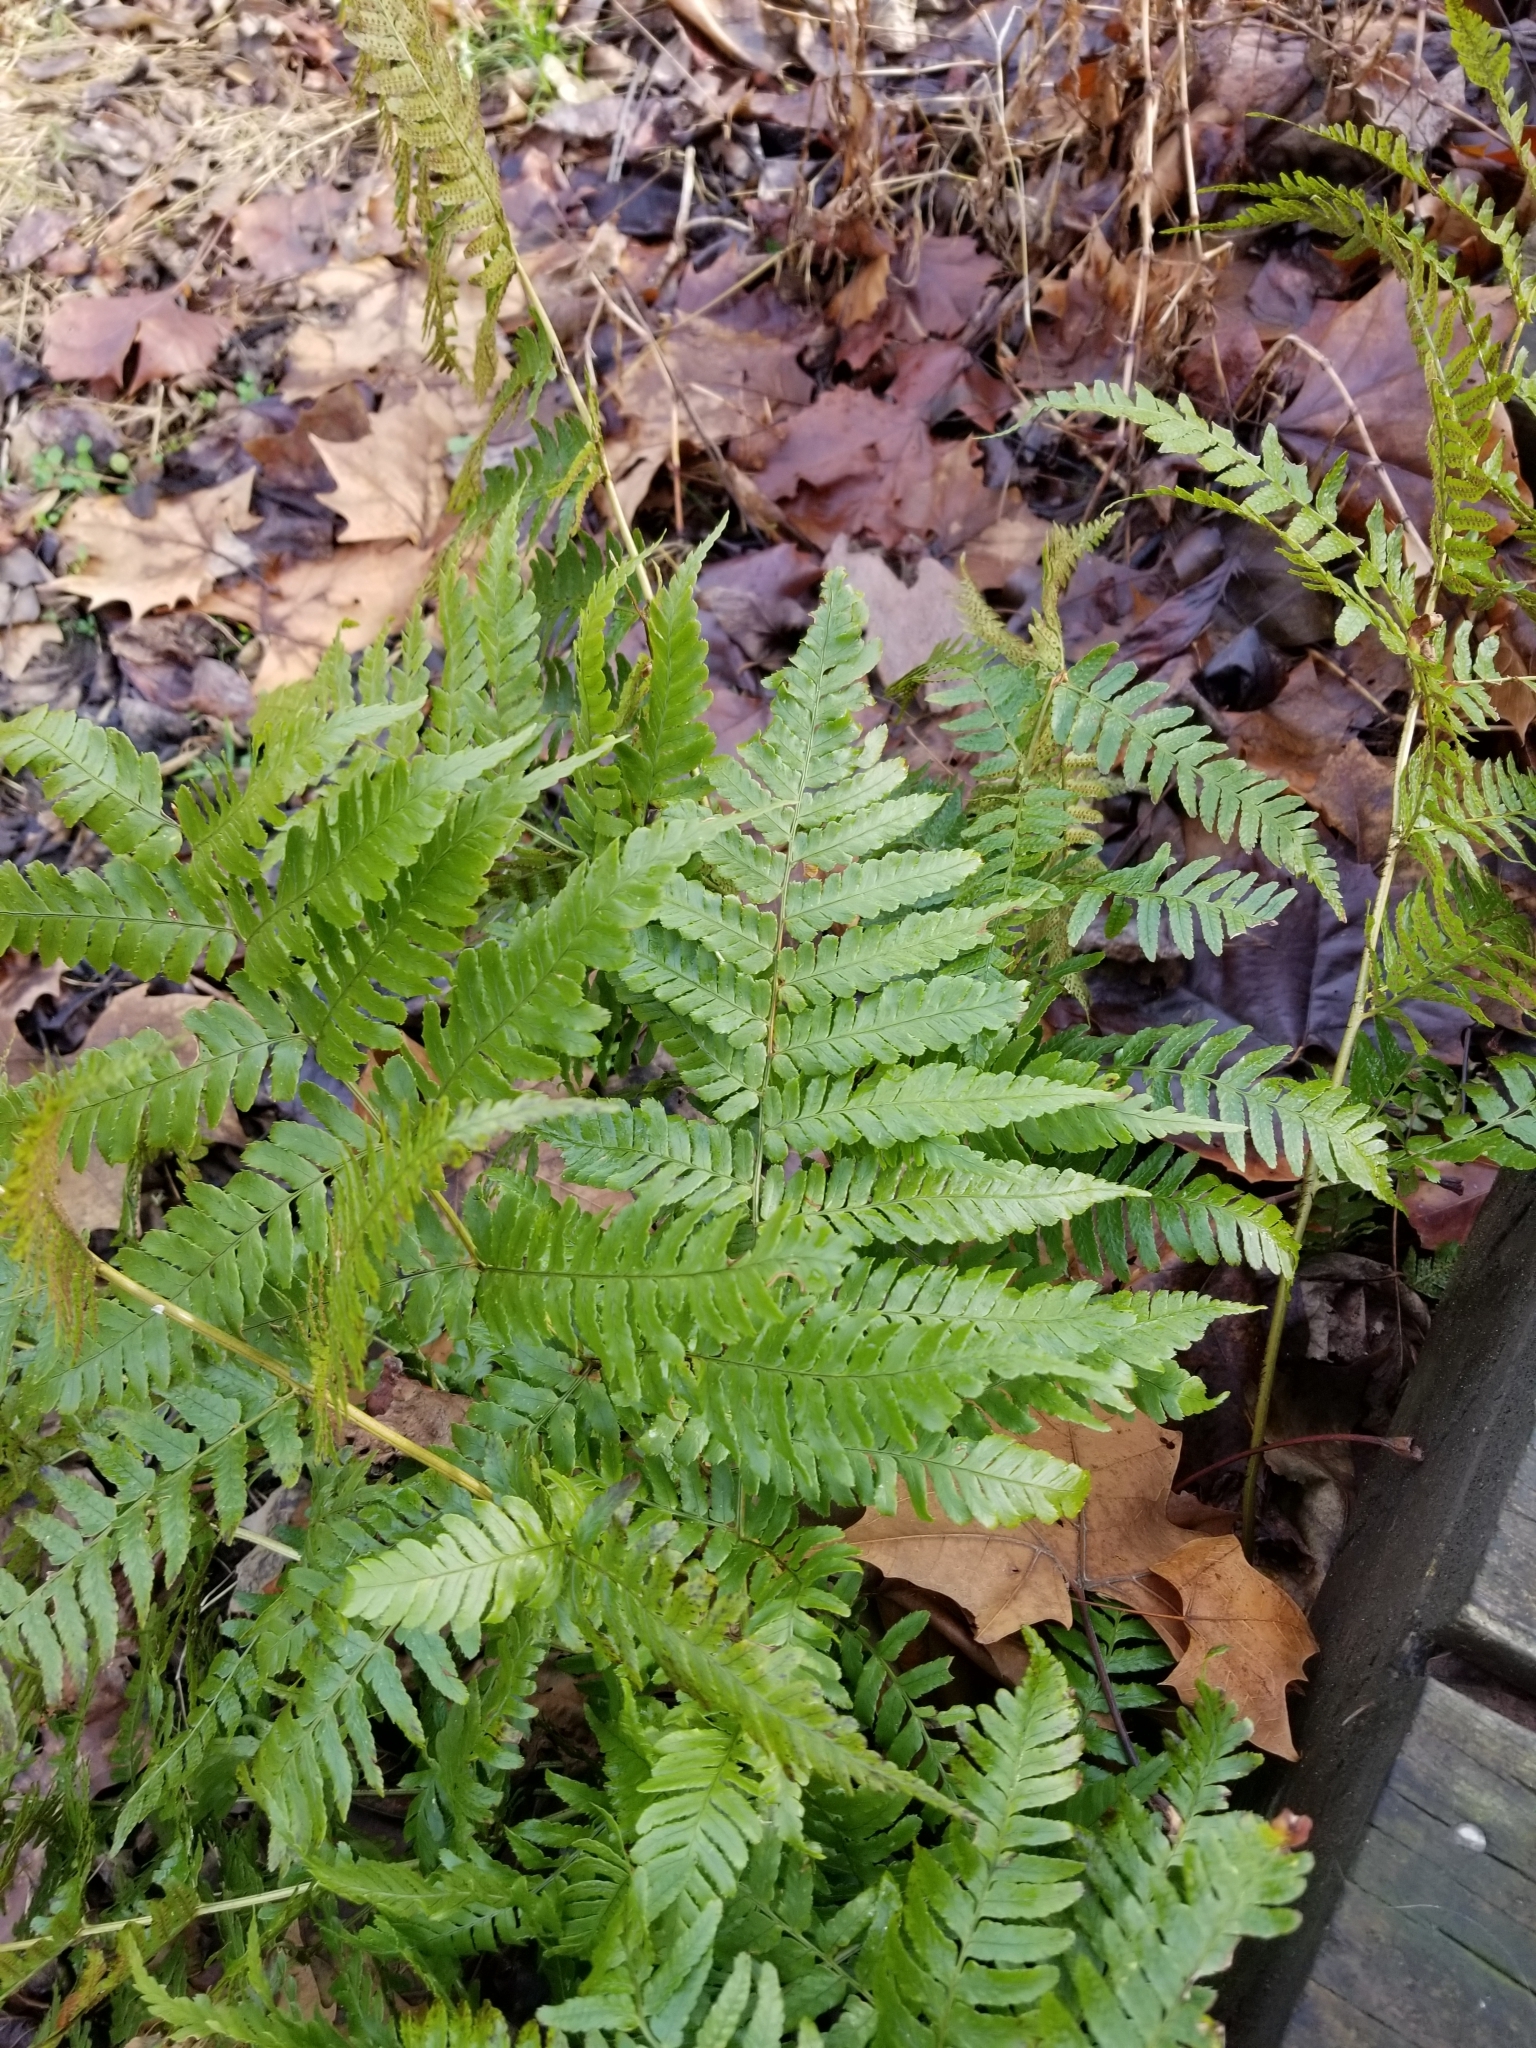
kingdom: Plantae
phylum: Tracheophyta
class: Polypodiopsida
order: Polypodiales
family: Dryopteridaceae
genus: Dryopteris
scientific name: Dryopteris erythrosora
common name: Autumn fern
